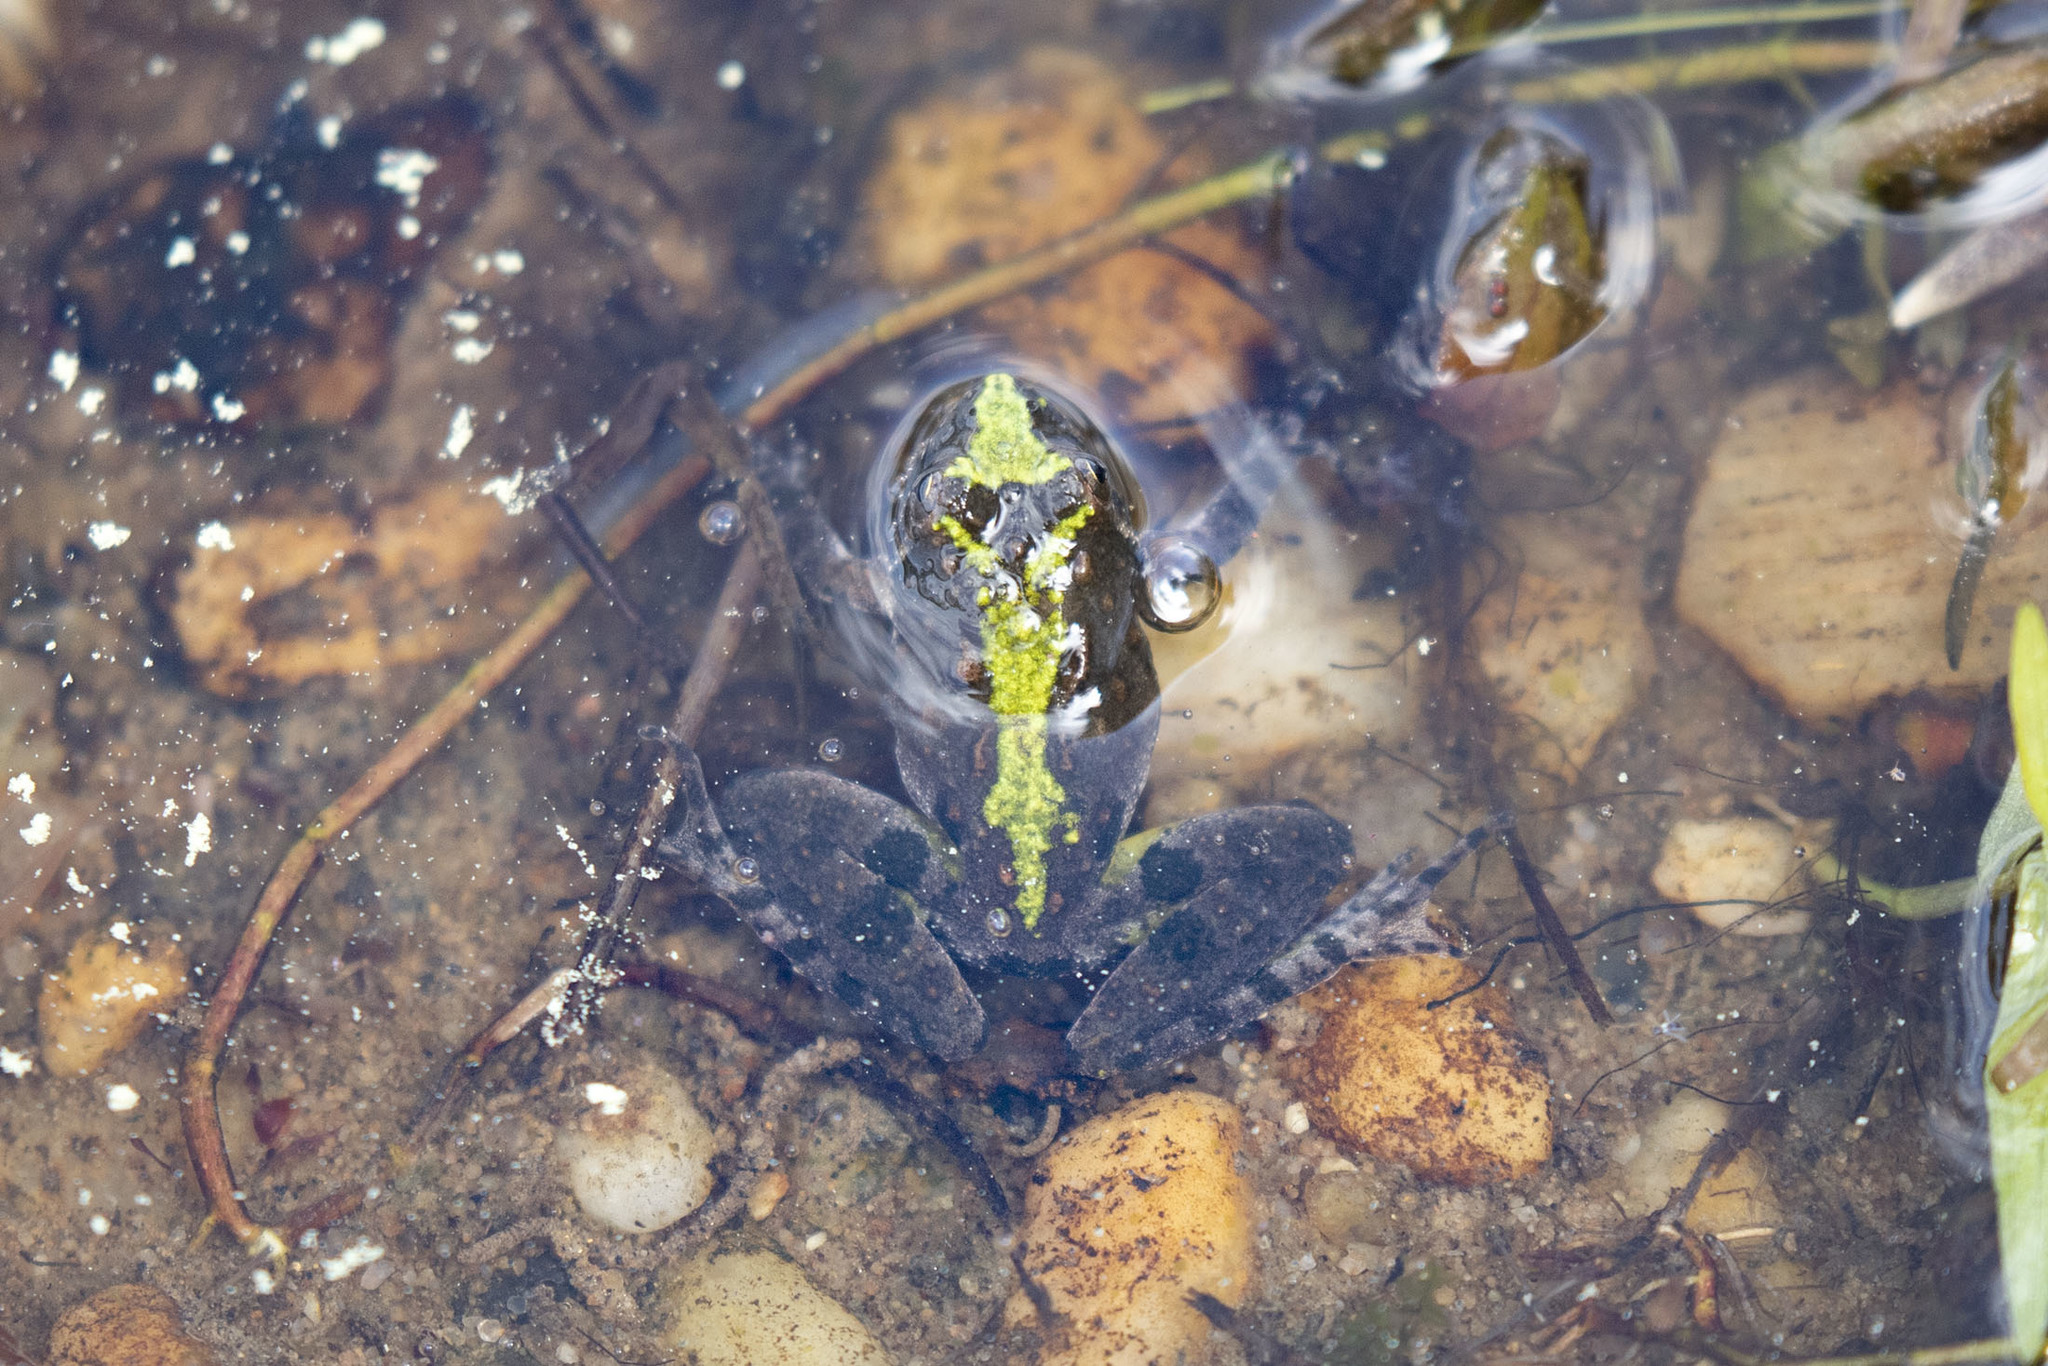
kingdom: Animalia
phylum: Chordata
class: Amphibia
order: Anura
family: Hylidae
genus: Acris
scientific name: Acris crepitans
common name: Northern cricket frog
